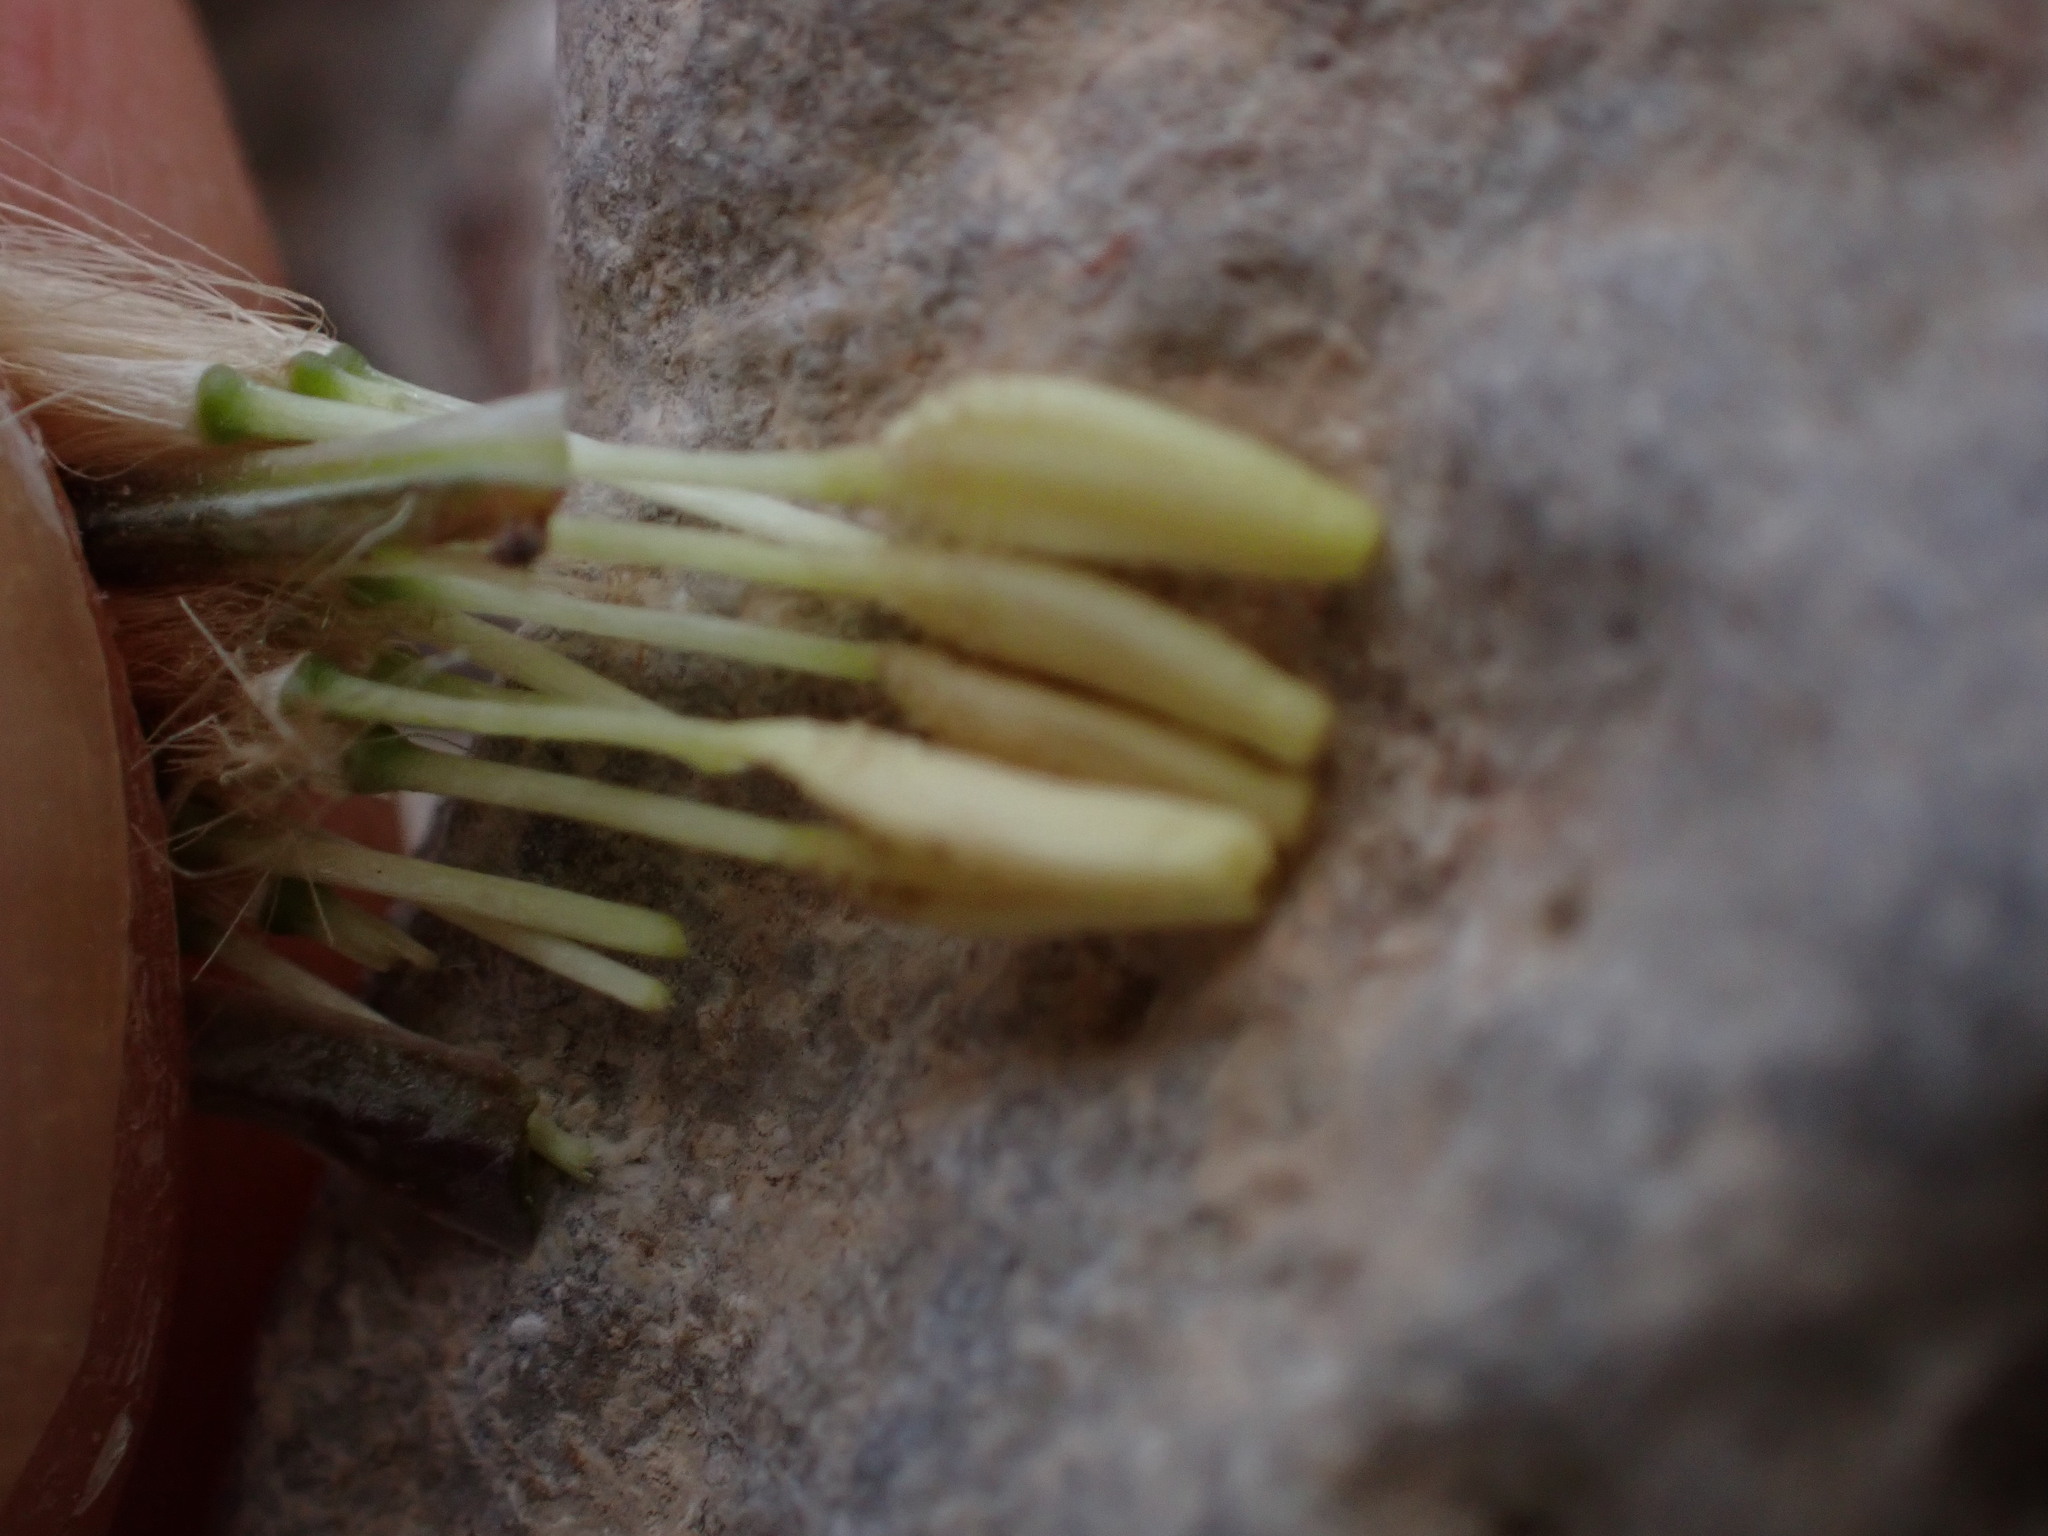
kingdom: Plantae
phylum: Tracheophyta
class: Magnoliopsida
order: Asterales
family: Asteraceae
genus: Taraxacum
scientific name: Taraxacum erythrospermum
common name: Rock dandelion
